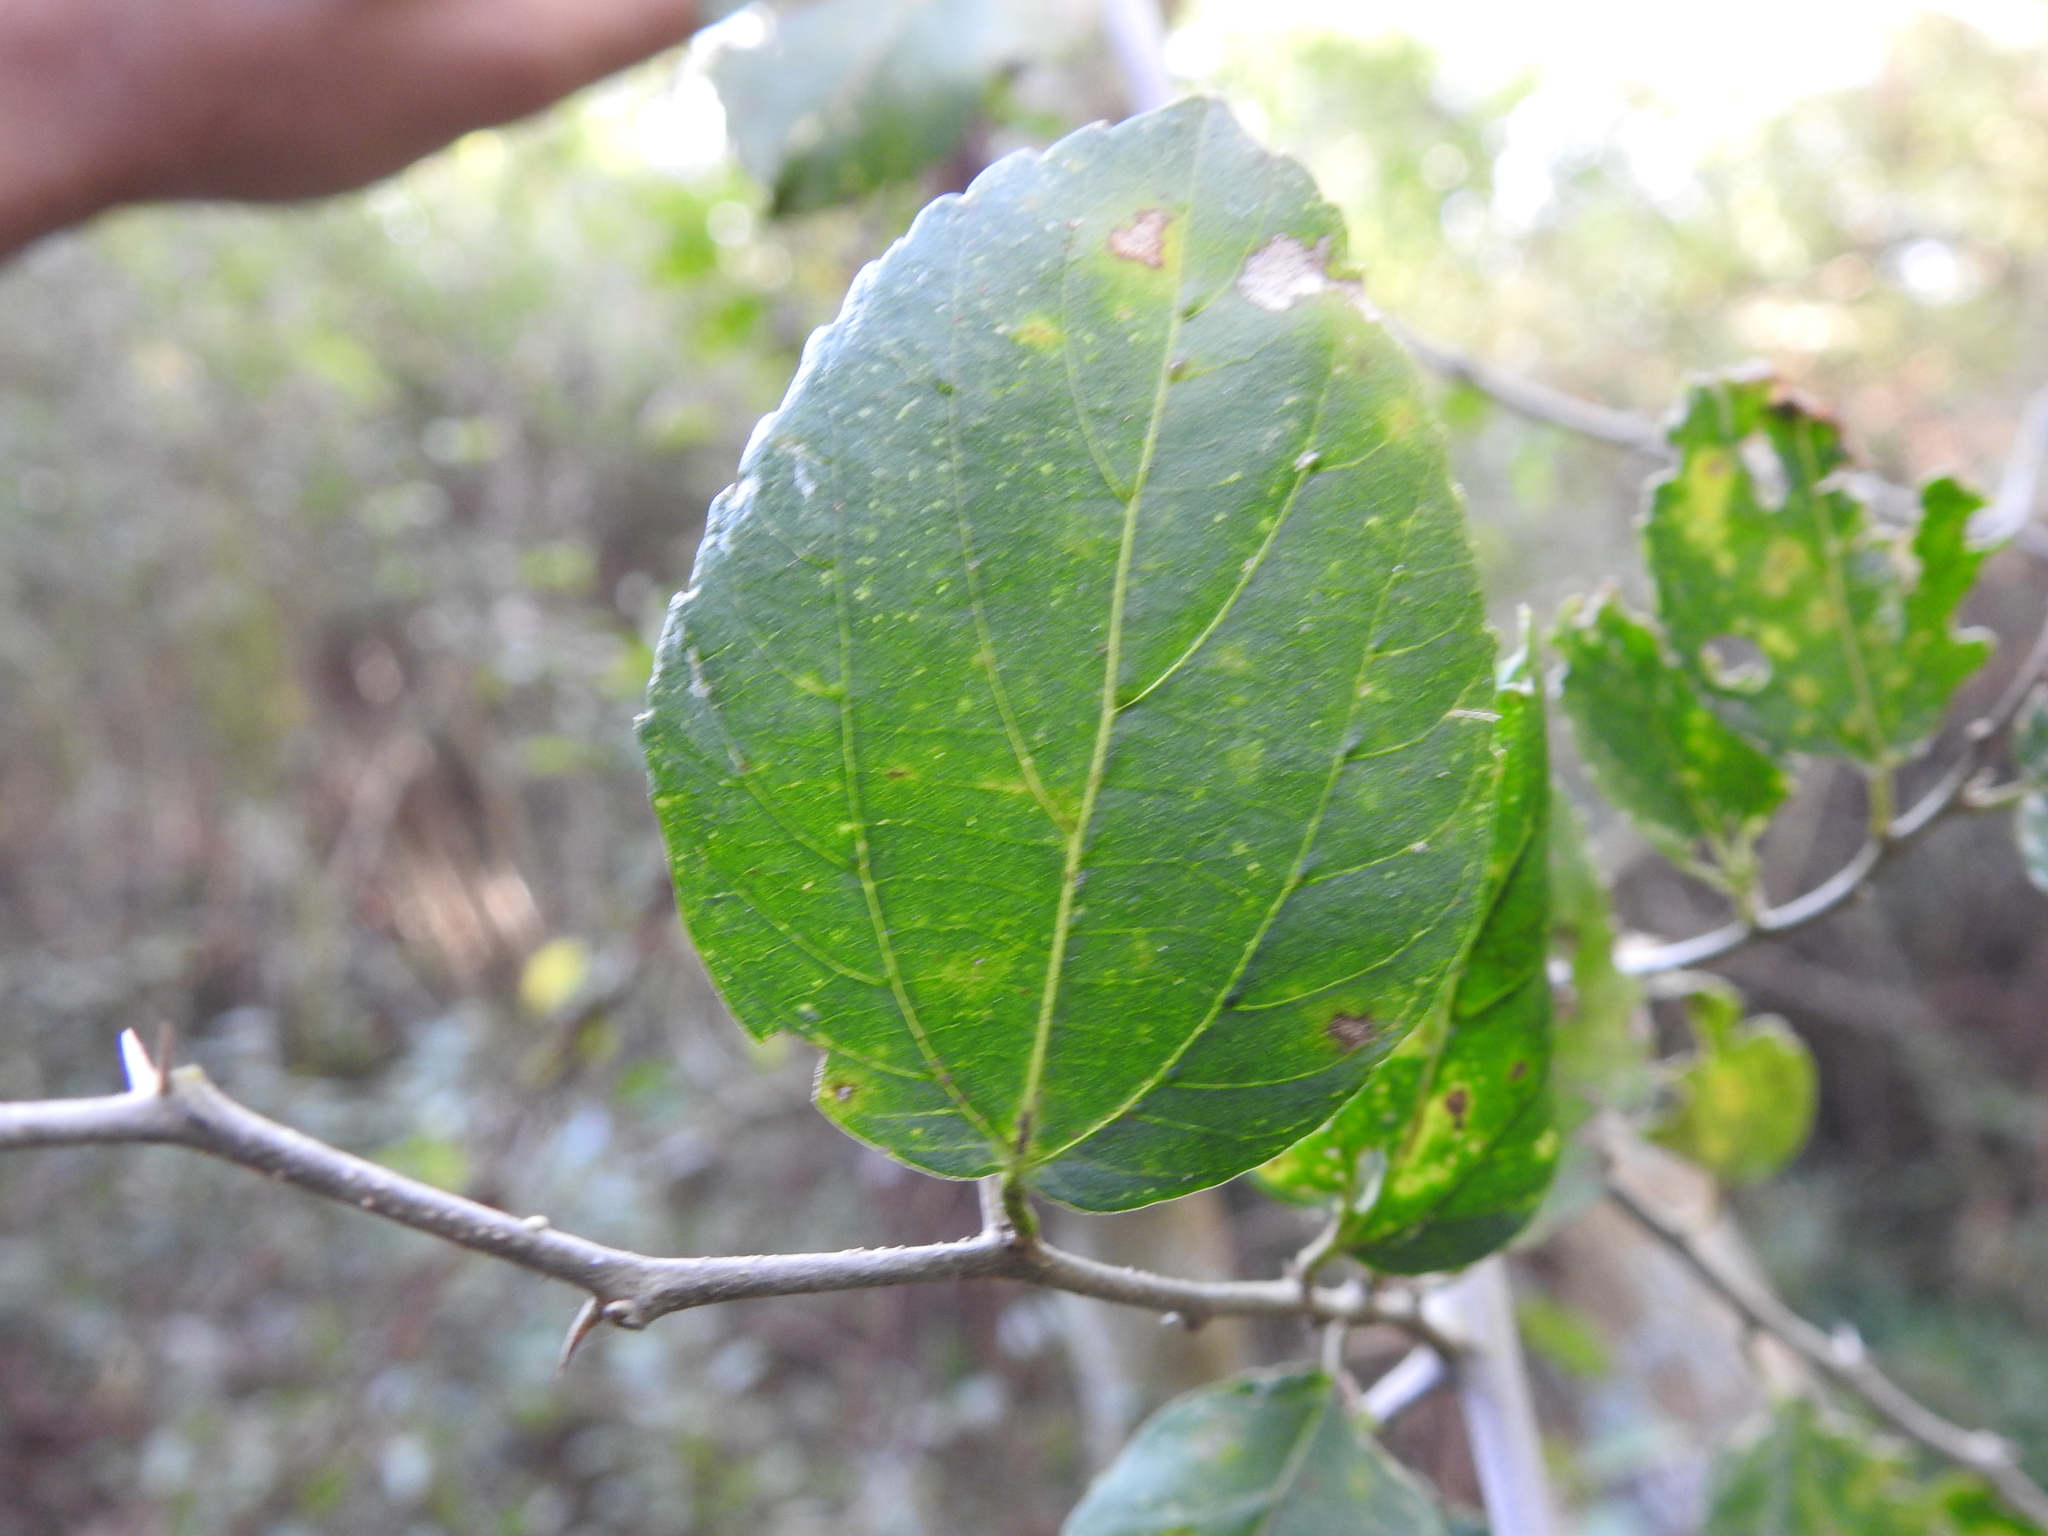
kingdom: Plantae
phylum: Tracheophyta
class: Magnoliopsida
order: Rosales
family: Cannabaceae
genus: Celtis
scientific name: Celtis chicape
